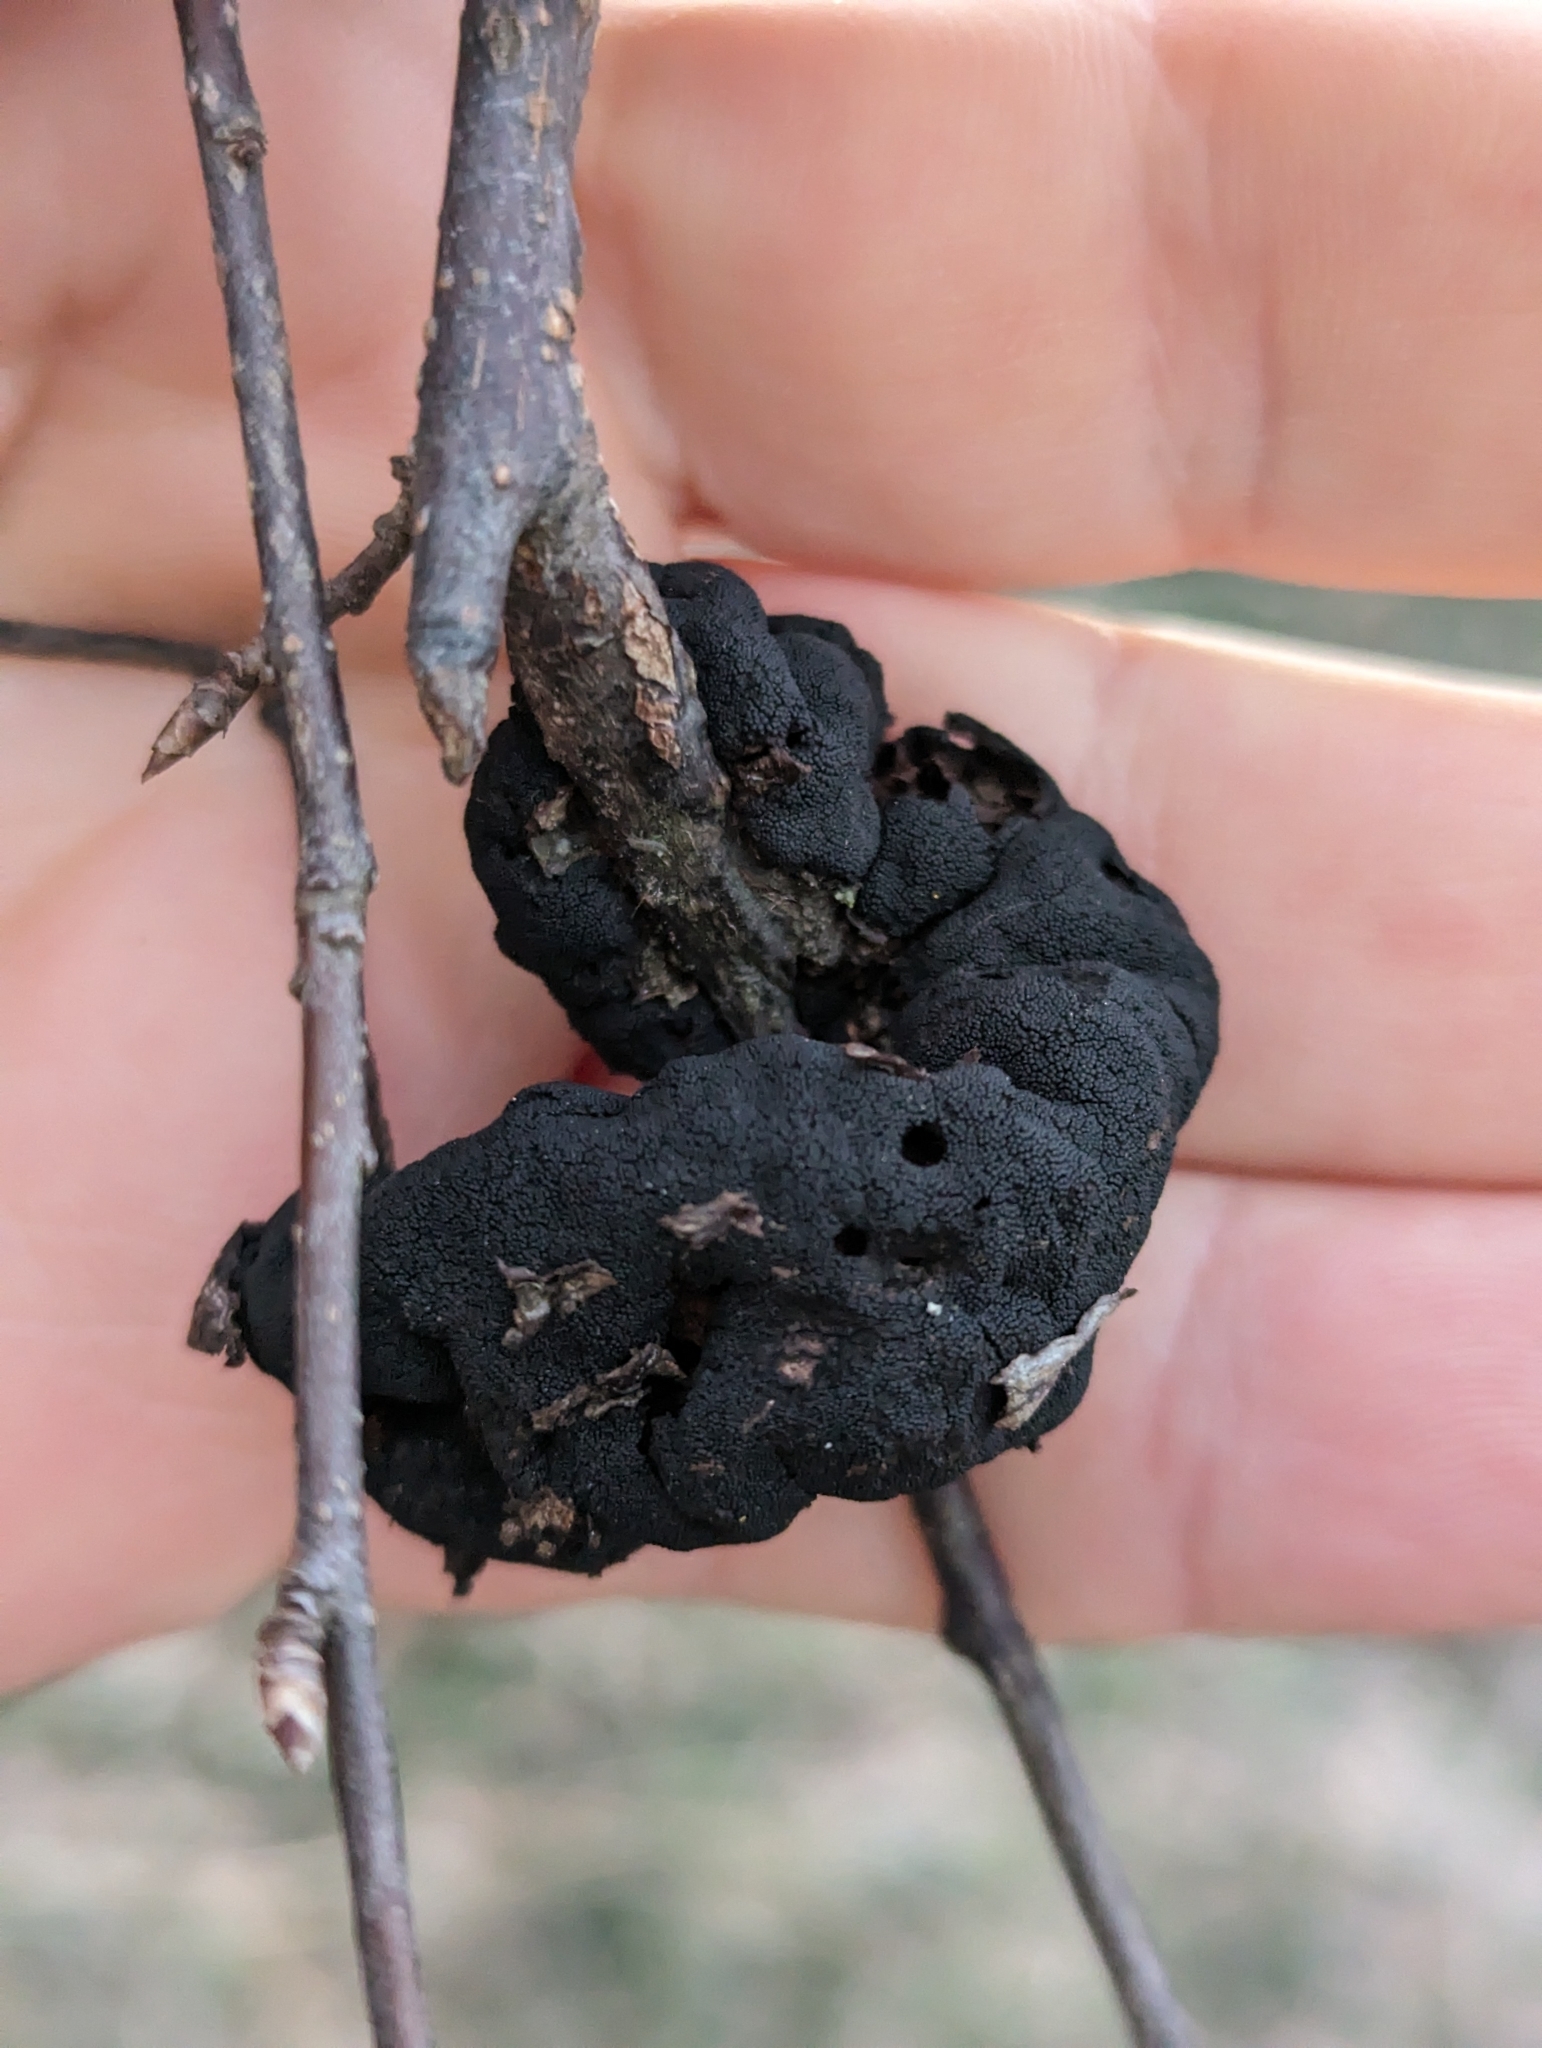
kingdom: Fungi
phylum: Ascomycota
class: Dothideomycetes
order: Venturiales
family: Venturiaceae
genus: Apiosporina
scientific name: Apiosporina morbosa
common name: Black knot
